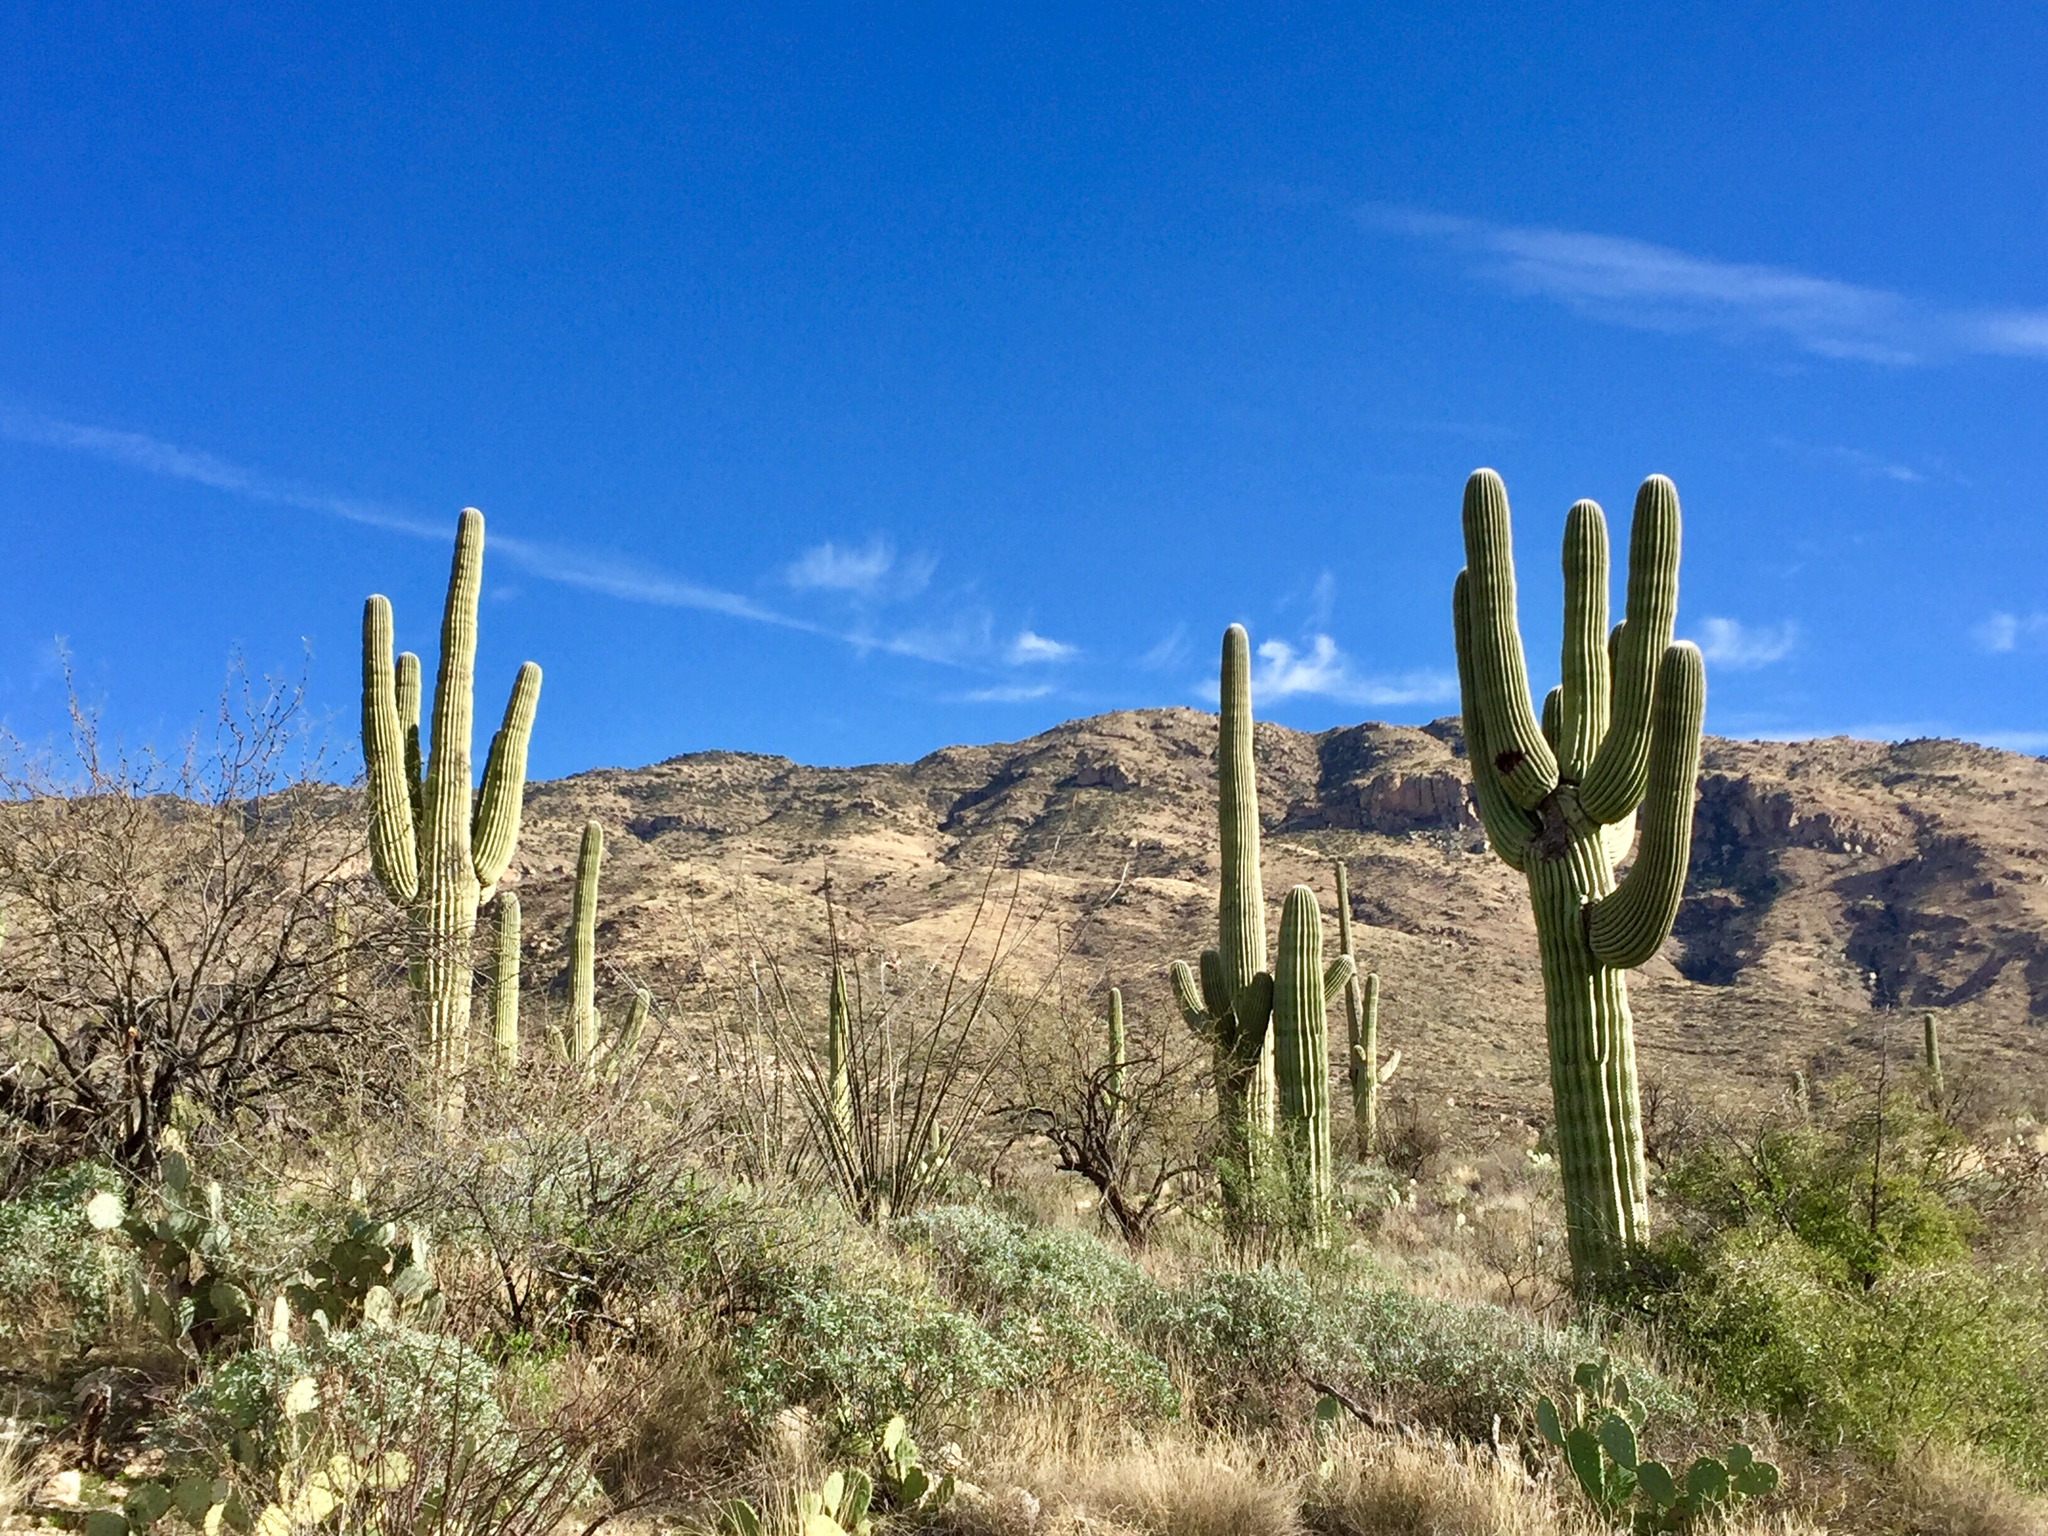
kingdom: Plantae
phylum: Tracheophyta
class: Magnoliopsida
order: Caryophyllales
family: Cactaceae
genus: Carnegiea
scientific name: Carnegiea gigantea
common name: Saguaro
